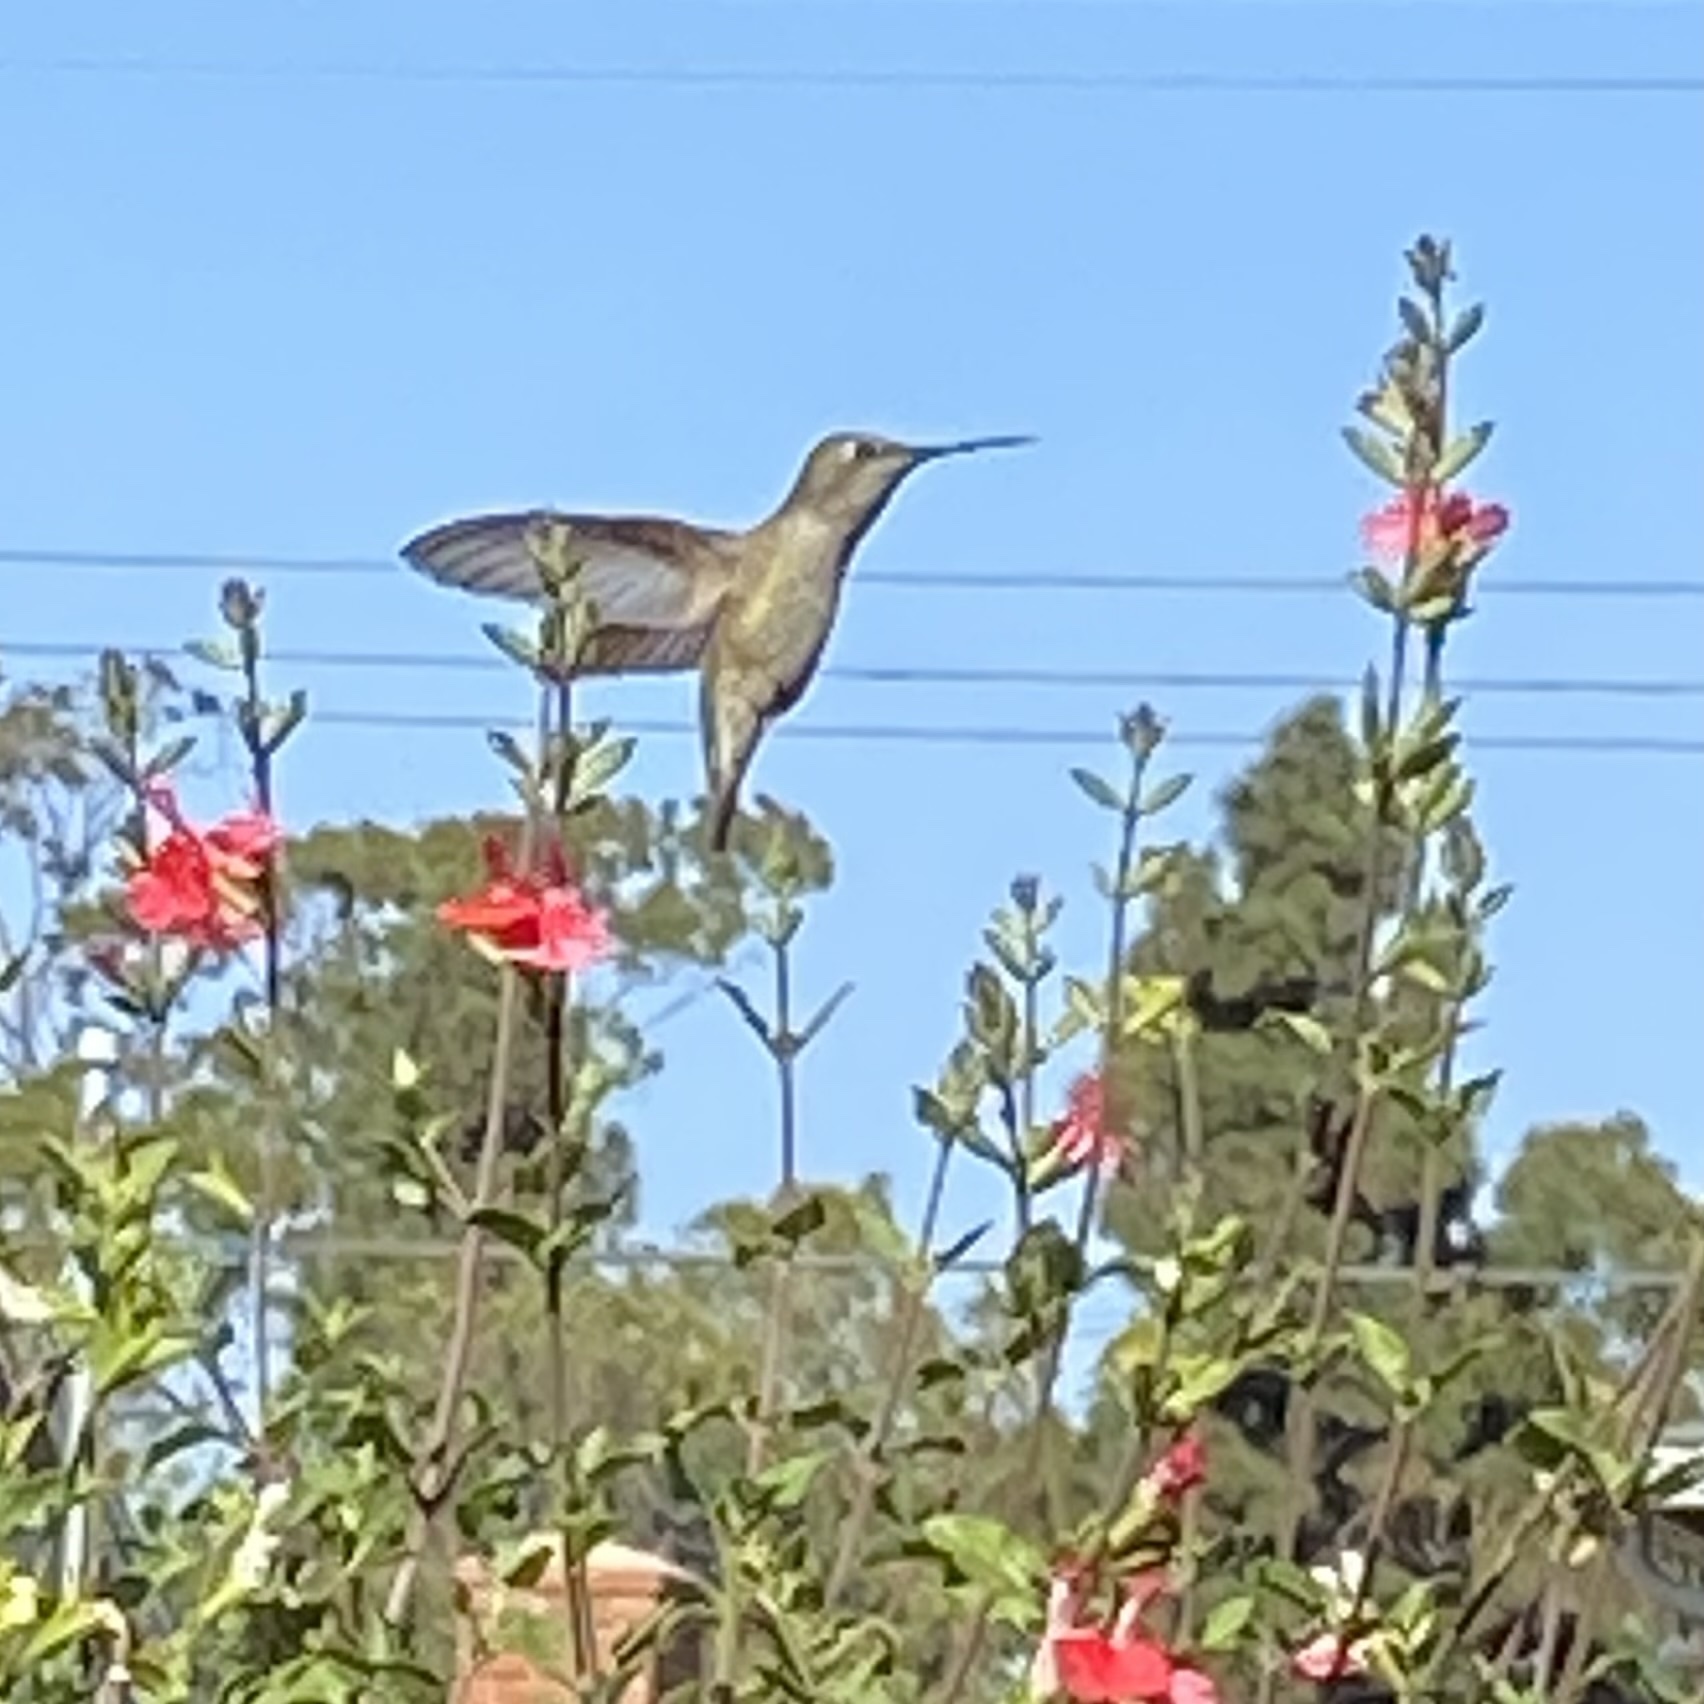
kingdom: Animalia
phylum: Chordata
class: Aves
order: Apodiformes
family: Trochilidae
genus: Calypte
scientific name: Calypte anna
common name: Anna's hummingbird
